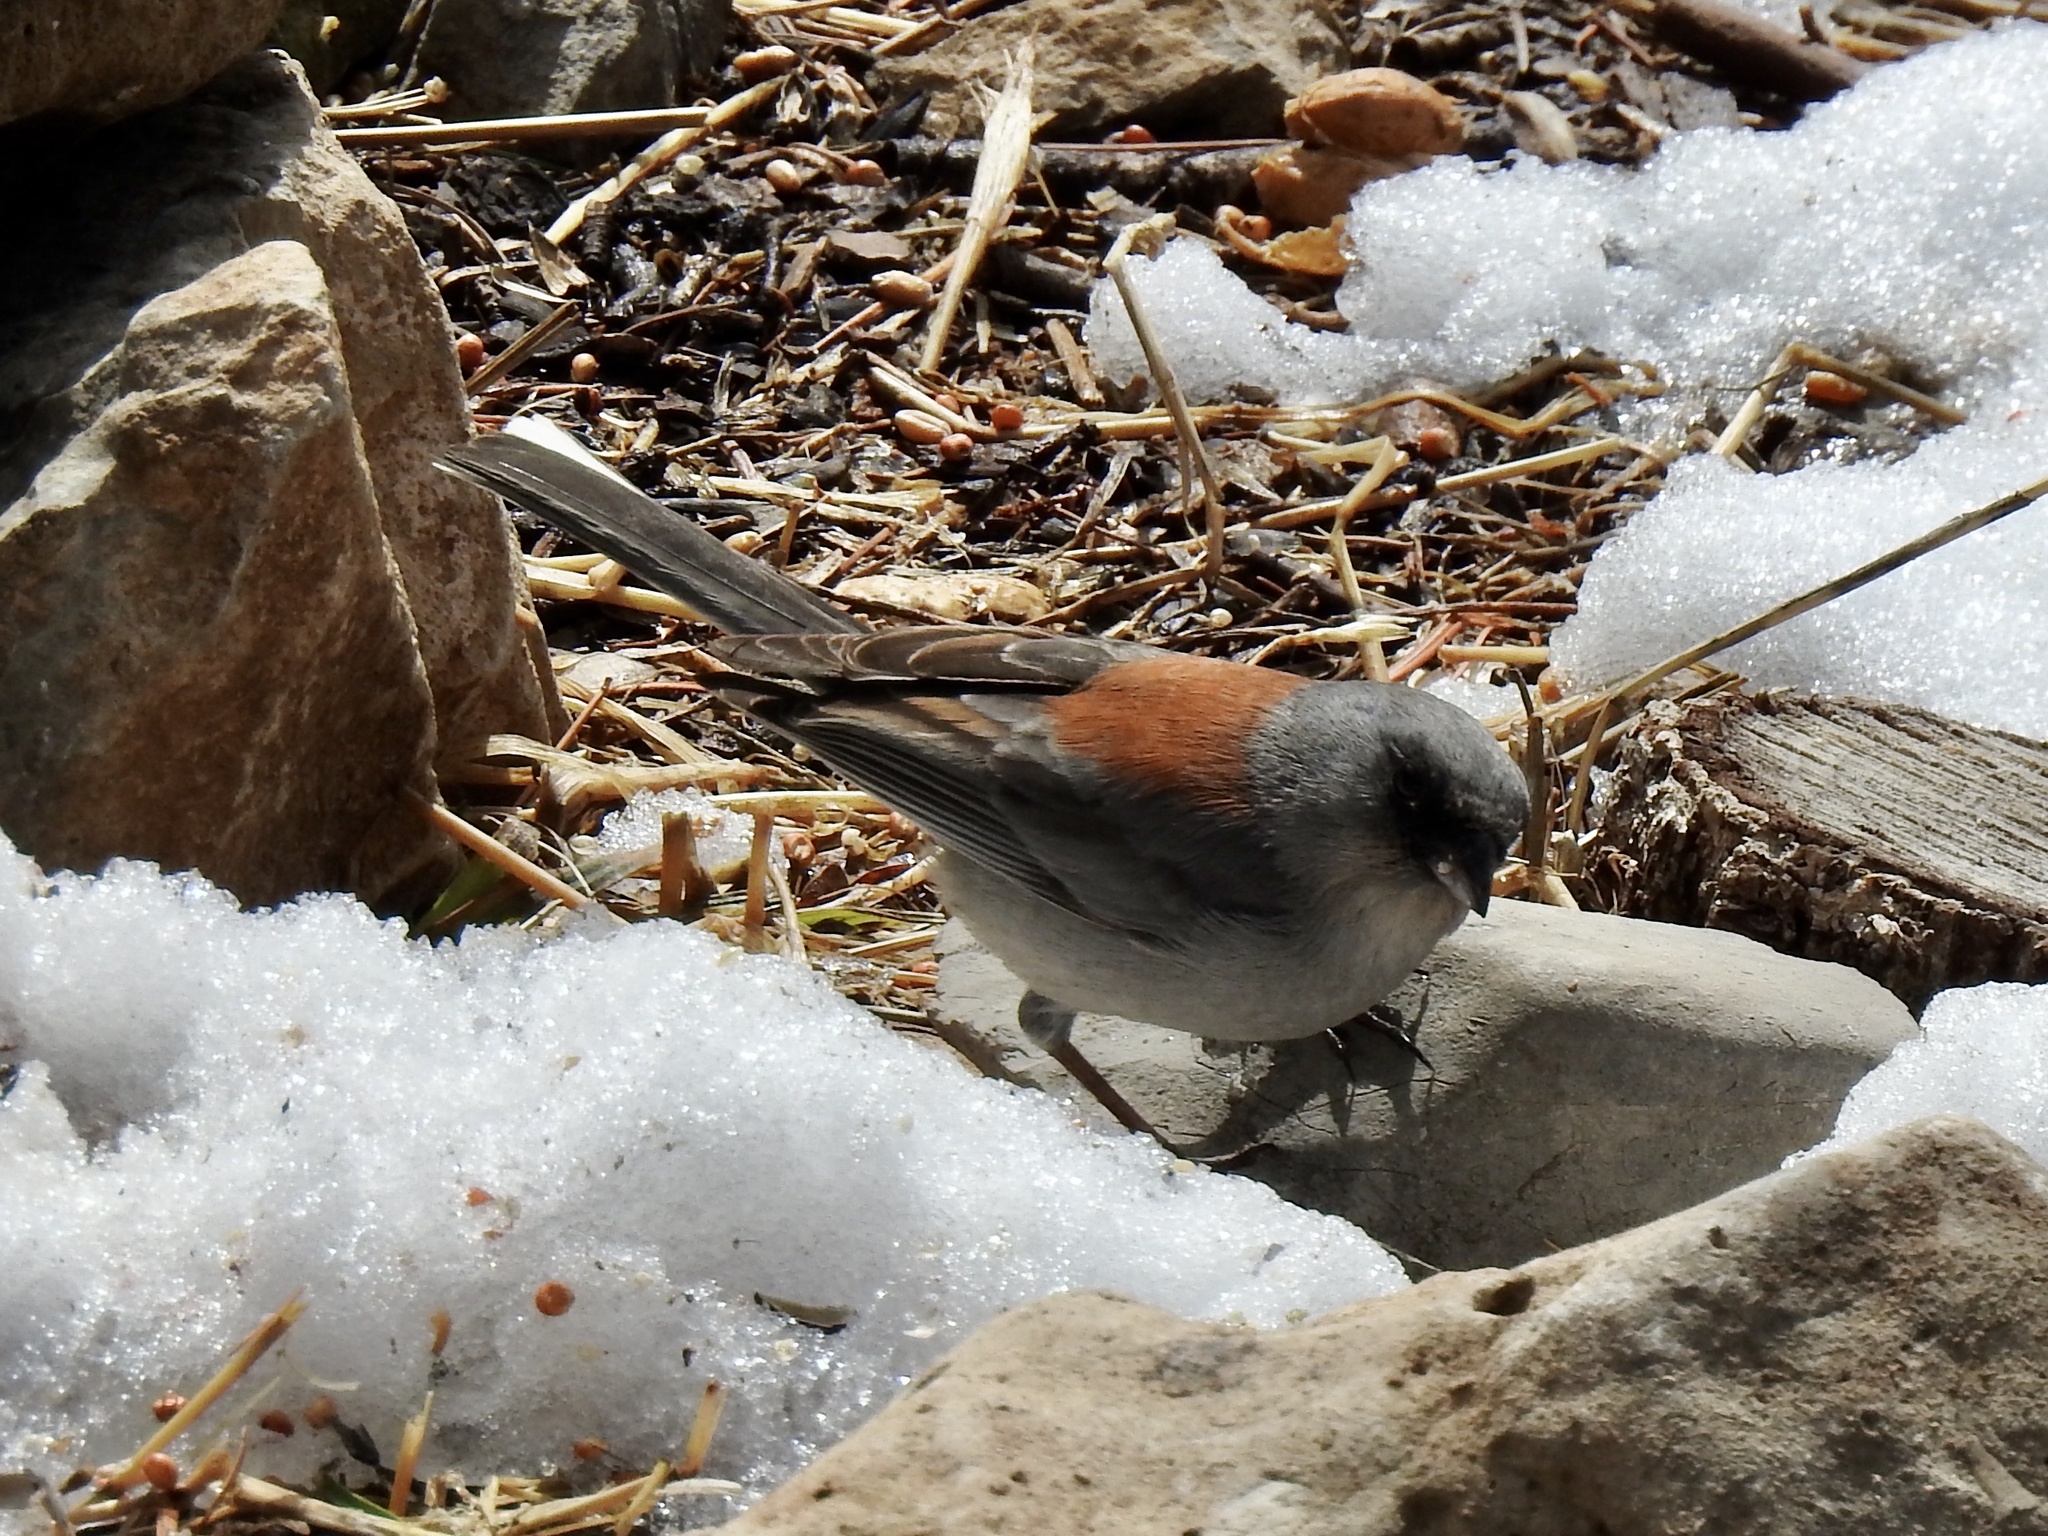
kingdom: Animalia
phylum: Chordata
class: Aves
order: Passeriformes
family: Passerellidae
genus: Junco
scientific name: Junco hyemalis
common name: Dark-eyed junco
